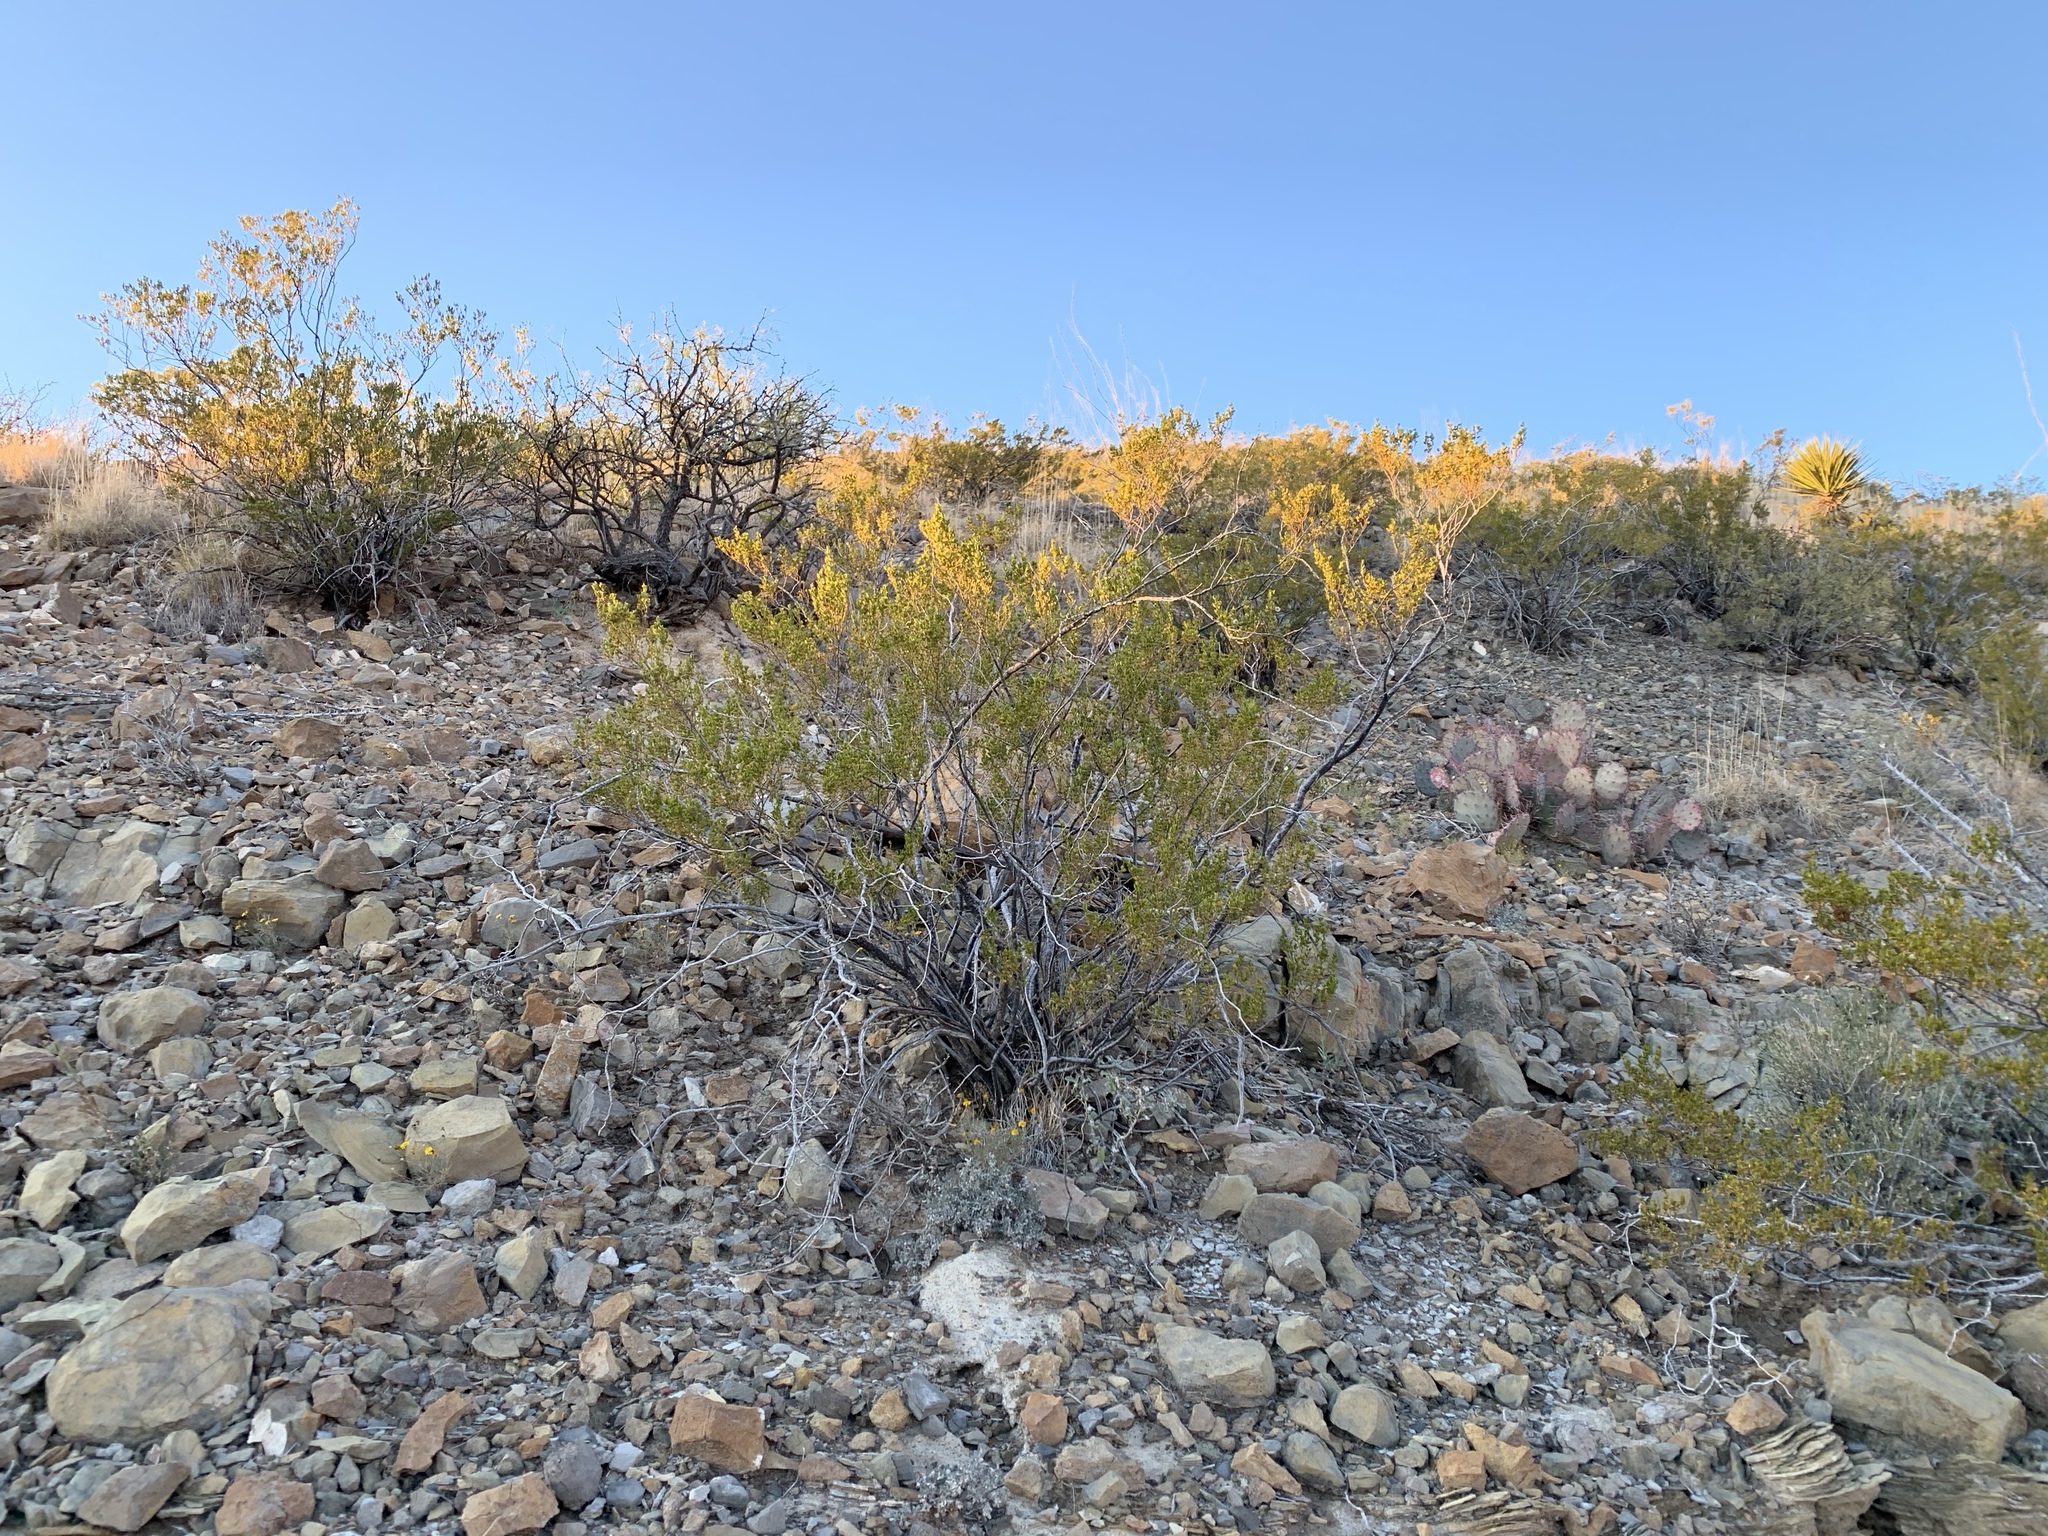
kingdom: Plantae
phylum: Tracheophyta
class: Magnoliopsida
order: Zygophyllales
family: Zygophyllaceae
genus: Larrea
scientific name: Larrea tridentata
